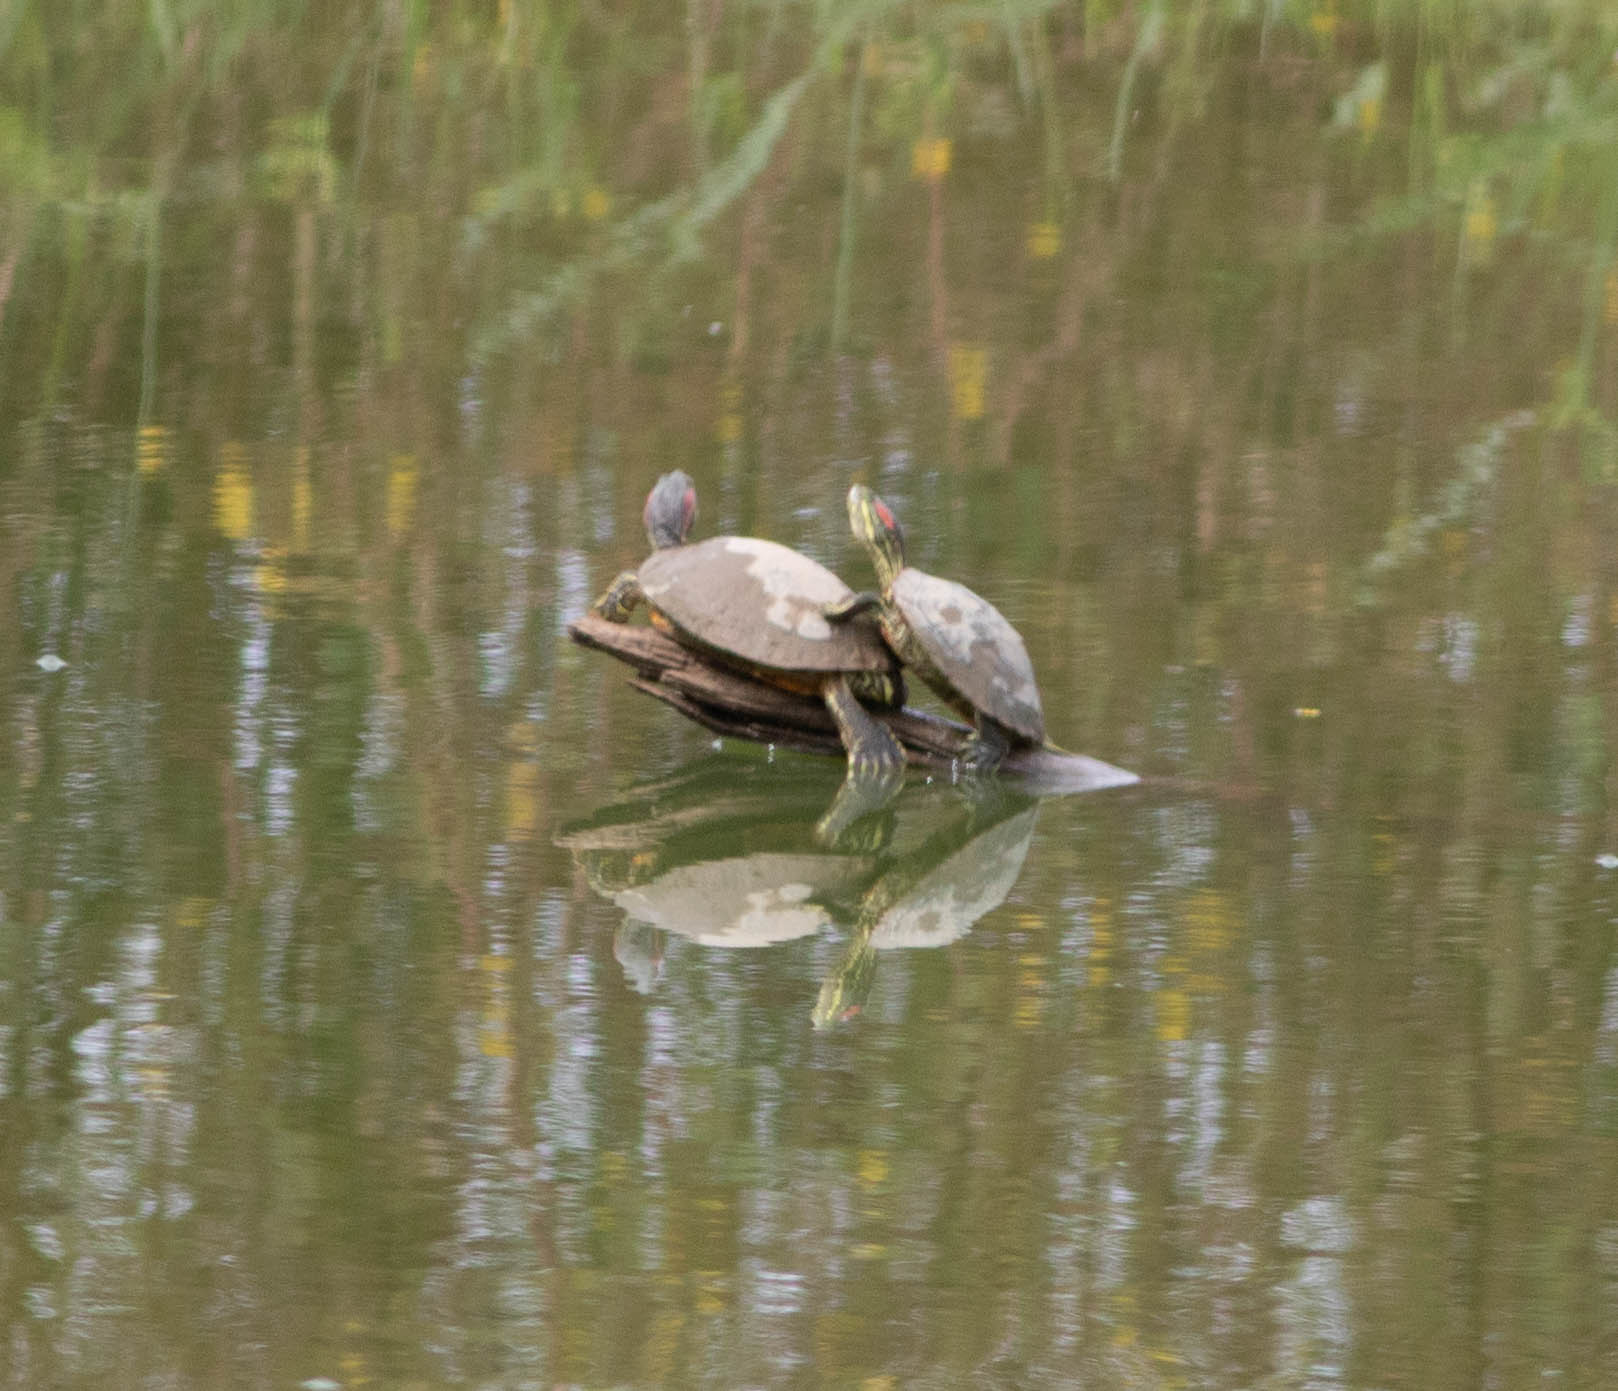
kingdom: Animalia
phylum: Chordata
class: Testudines
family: Emydidae
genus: Trachemys
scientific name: Trachemys scripta
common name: Slider
